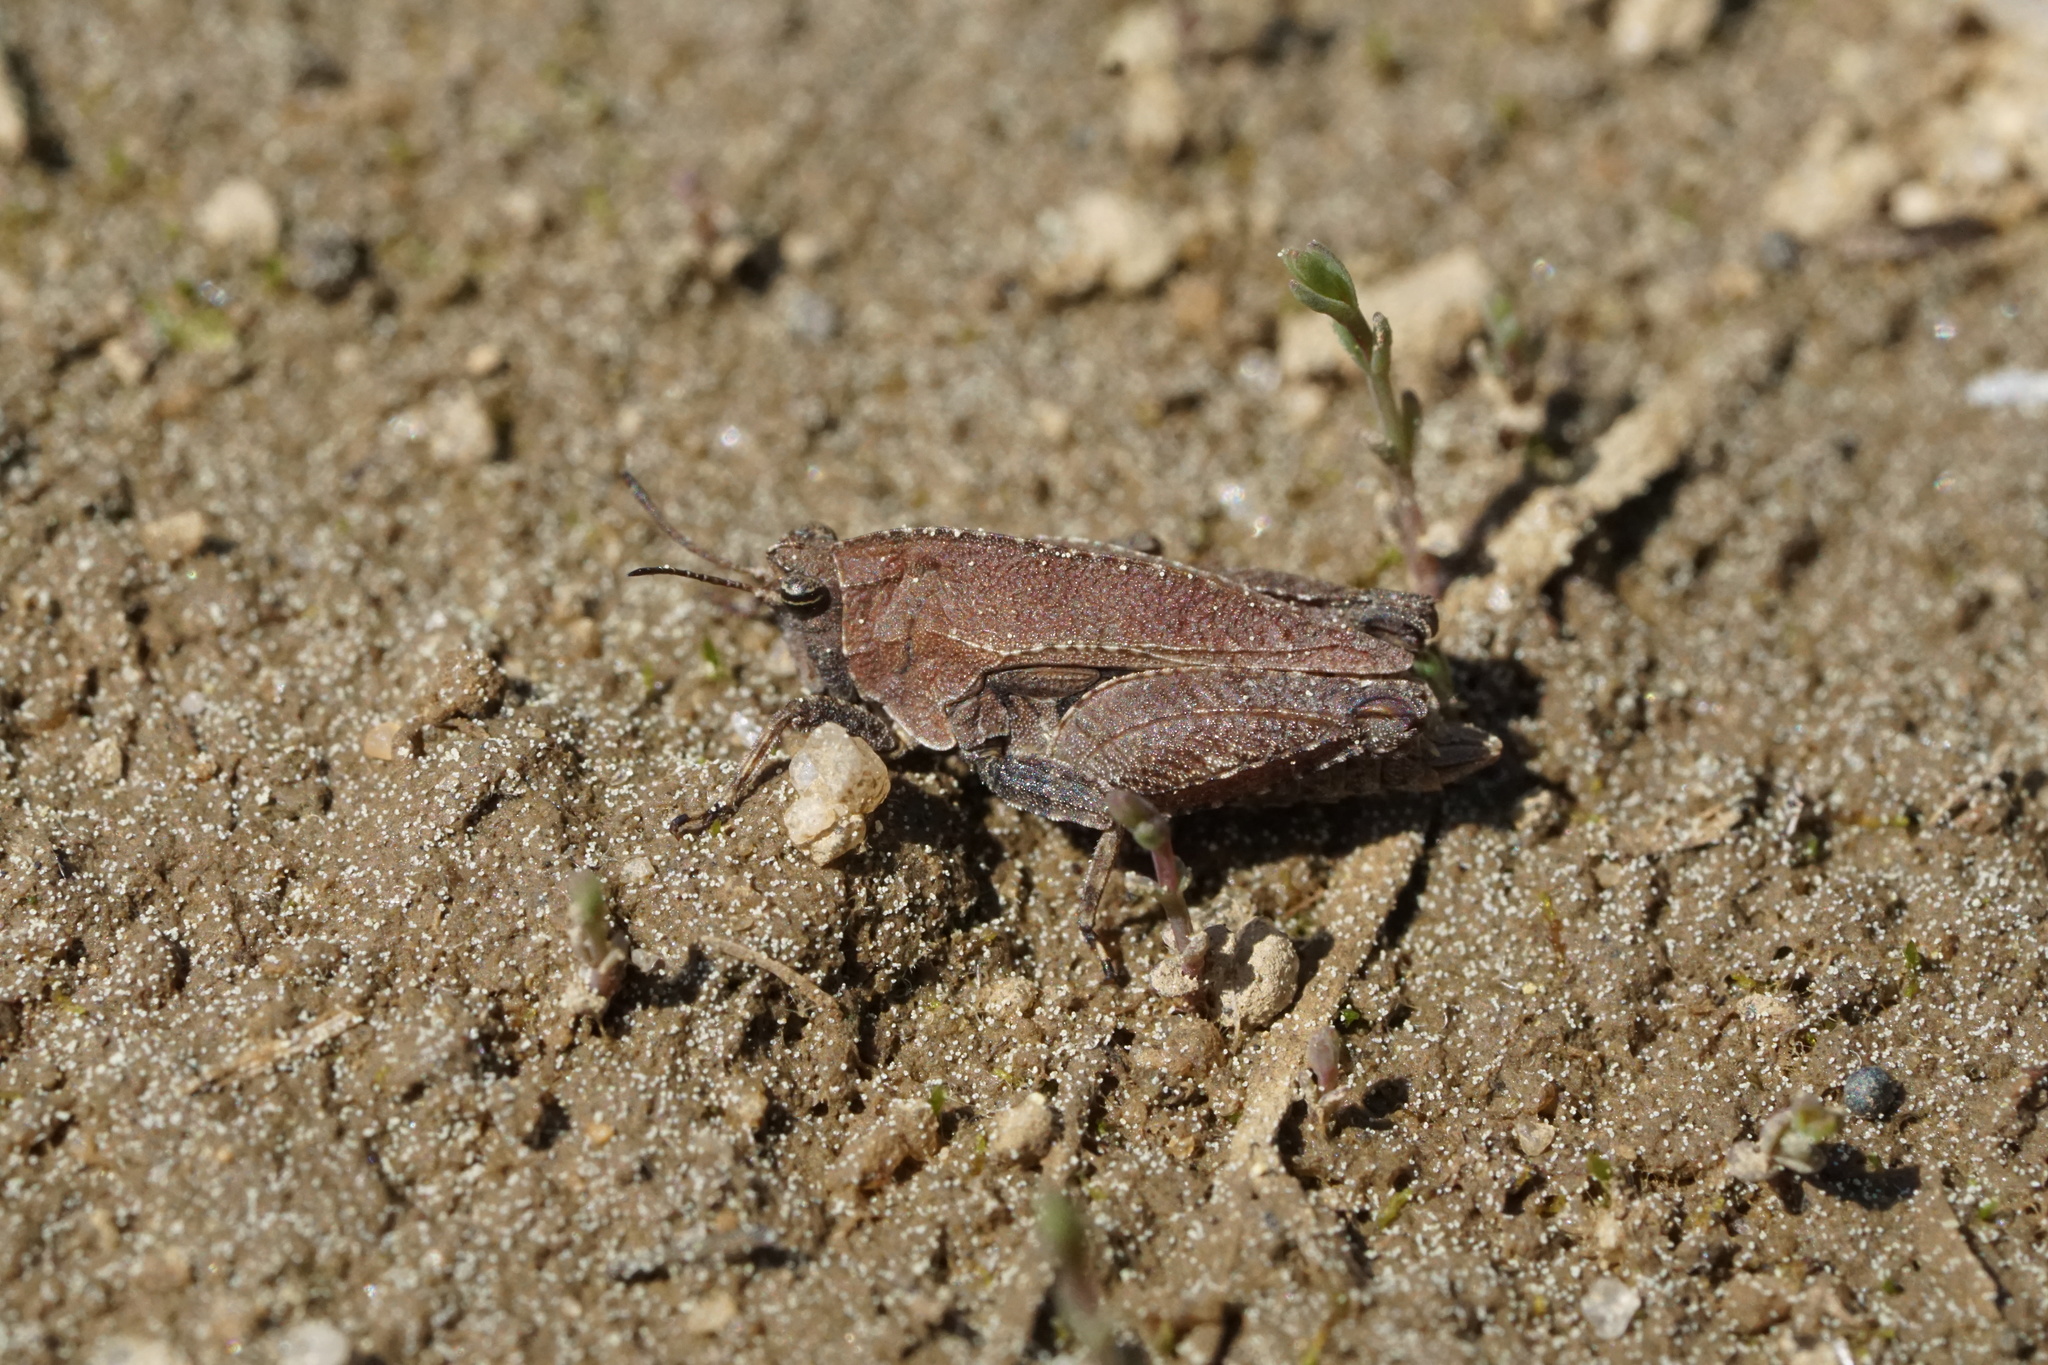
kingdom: Animalia
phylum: Arthropoda
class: Insecta
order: Orthoptera
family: Tetrigidae
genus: Nomotettix
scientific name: Nomotettix cristatus
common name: Crested grouse locust
